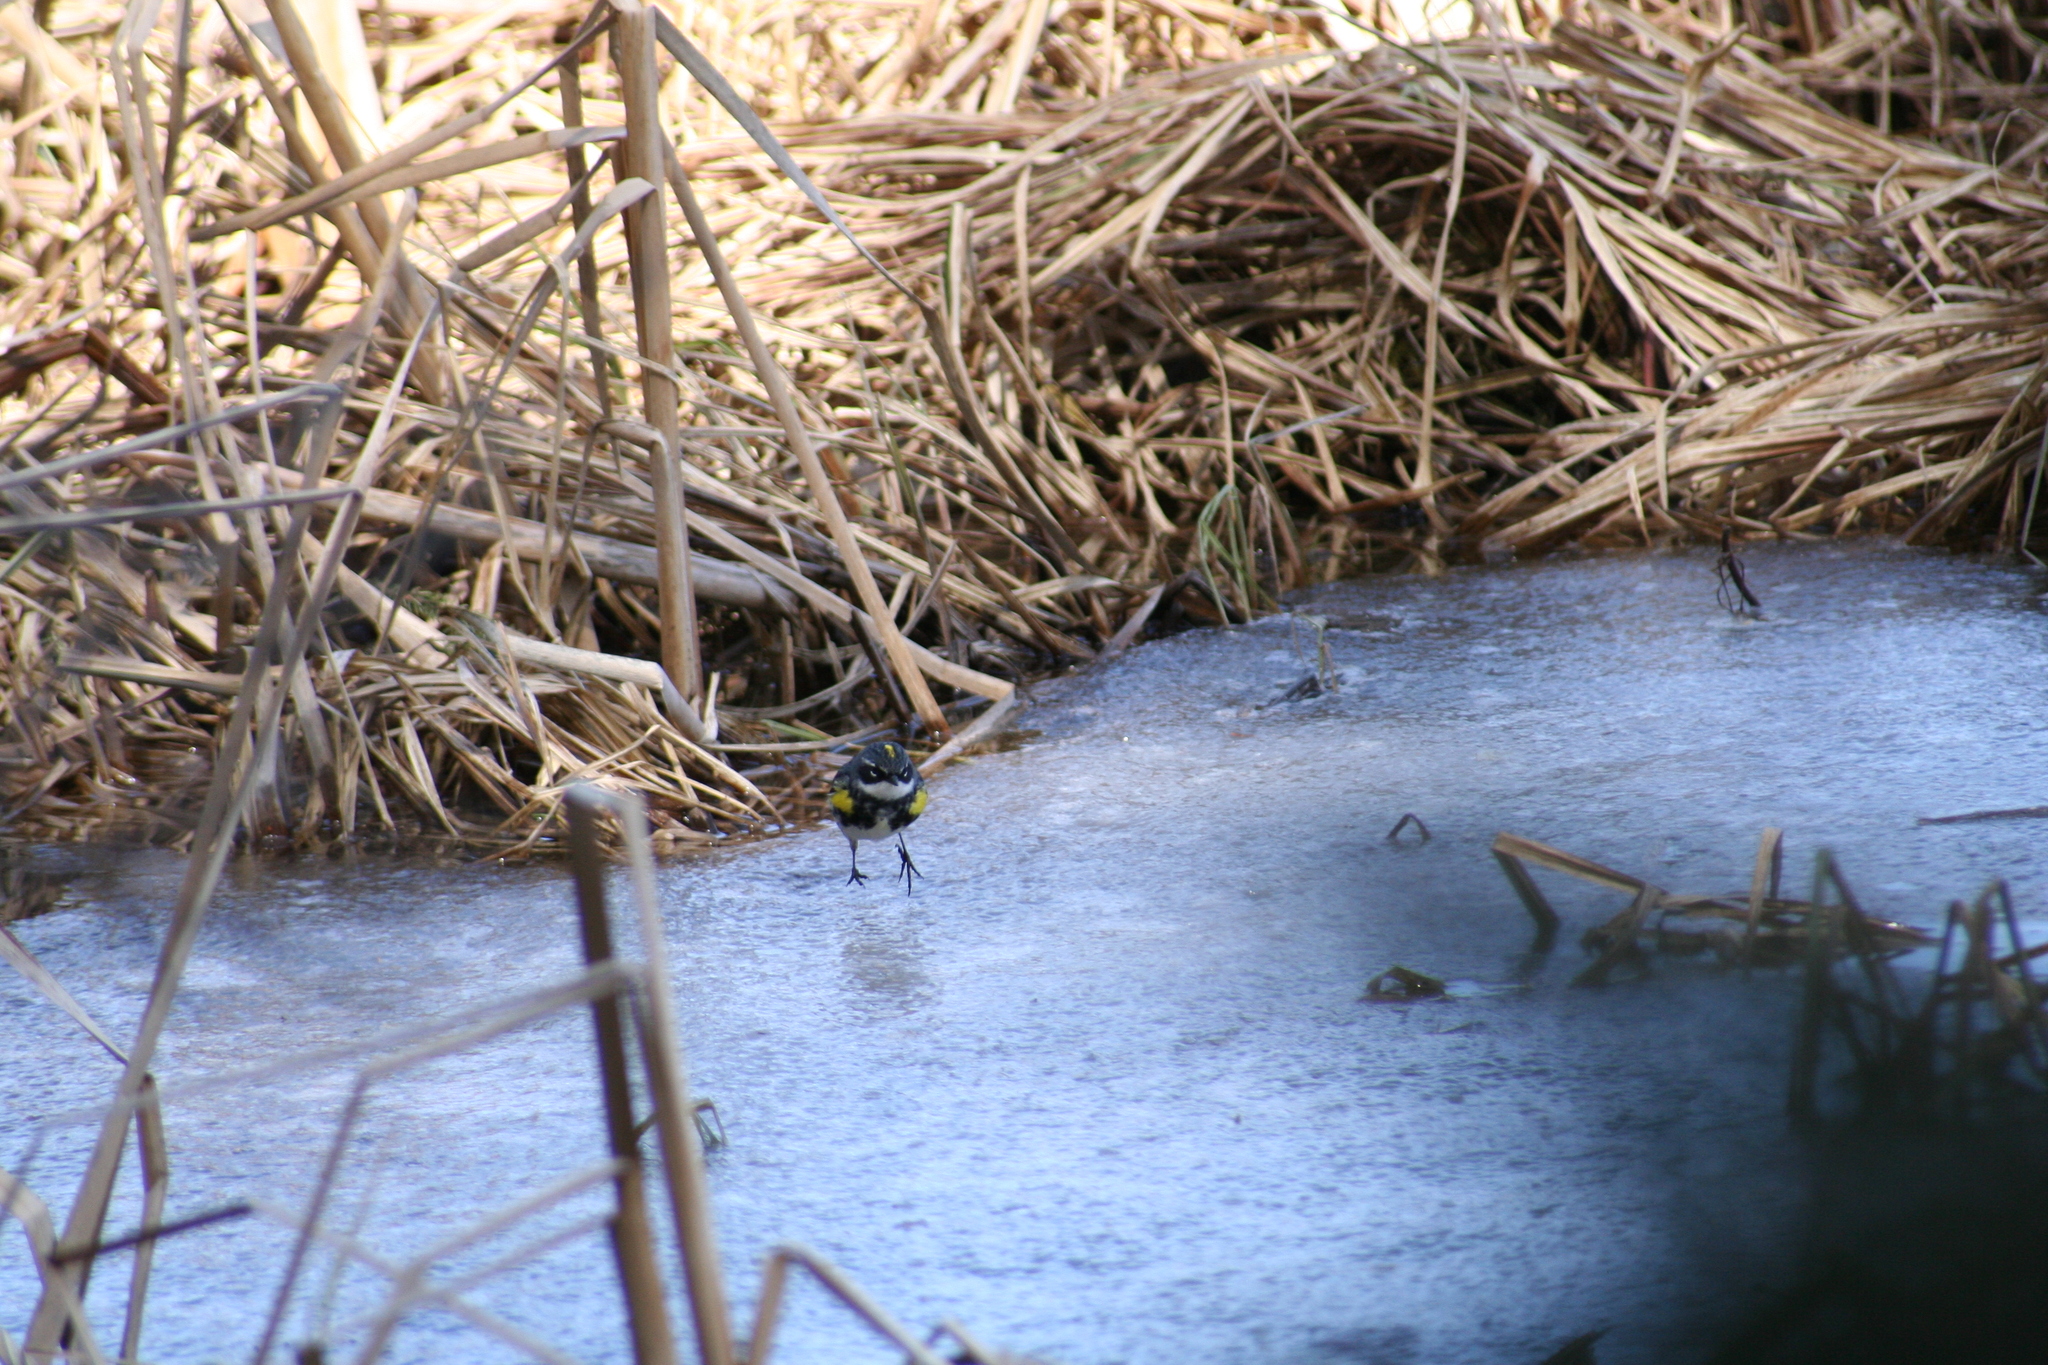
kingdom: Animalia
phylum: Chordata
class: Aves
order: Passeriformes
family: Parulidae
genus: Setophaga
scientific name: Setophaga coronata
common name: Myrtle warbler
